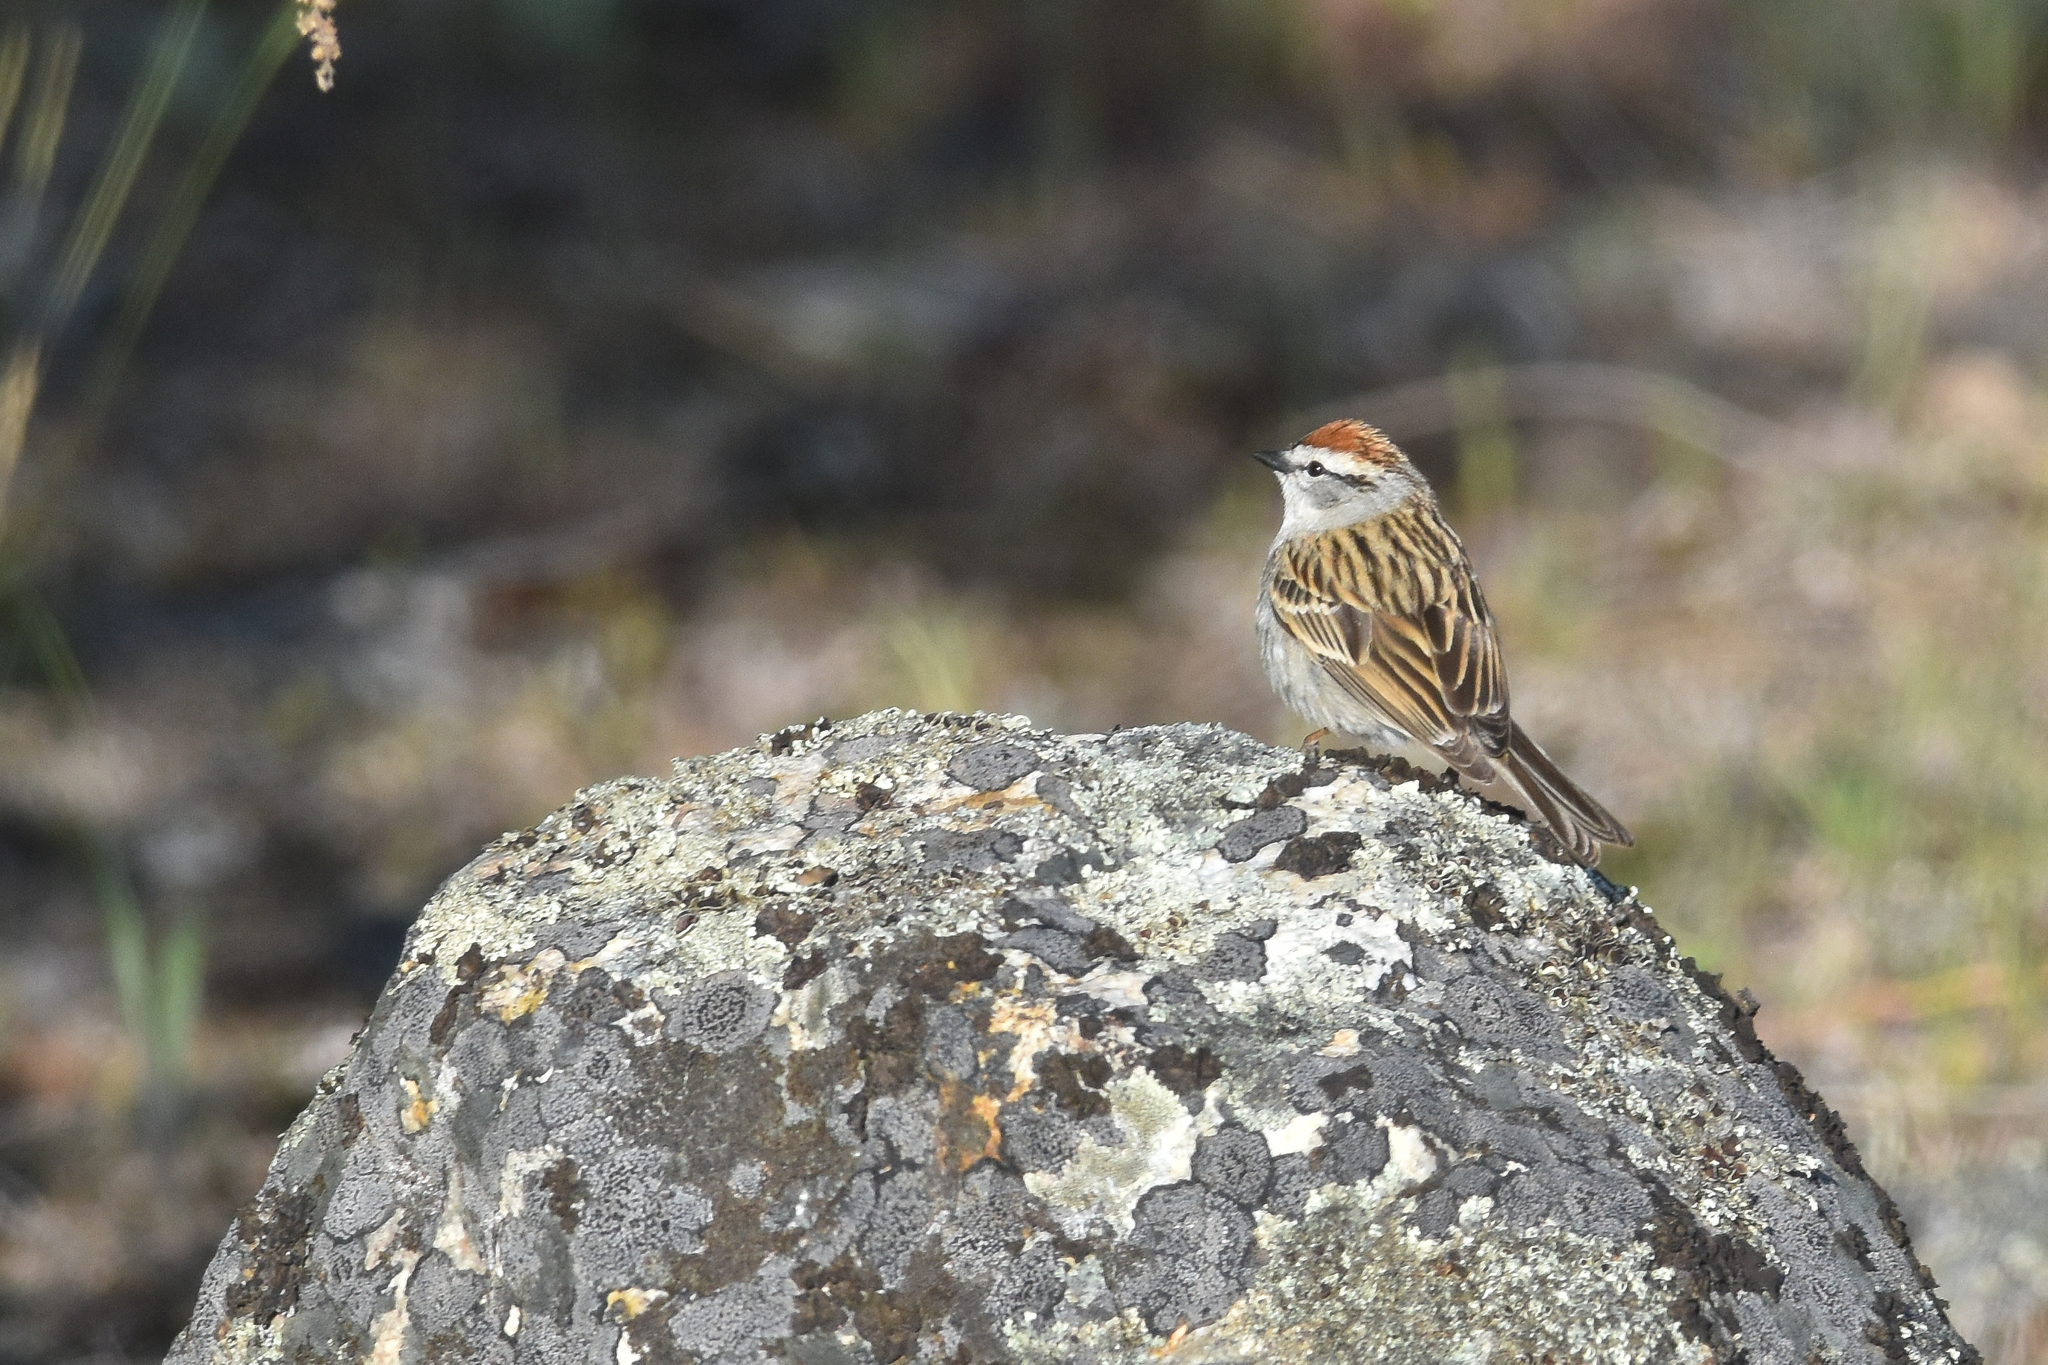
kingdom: Animalia
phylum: Chordata
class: Aves
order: Passeriformes
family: Passerellidae
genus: Spizella
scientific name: Spizella passerina
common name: Chipping sparrow
